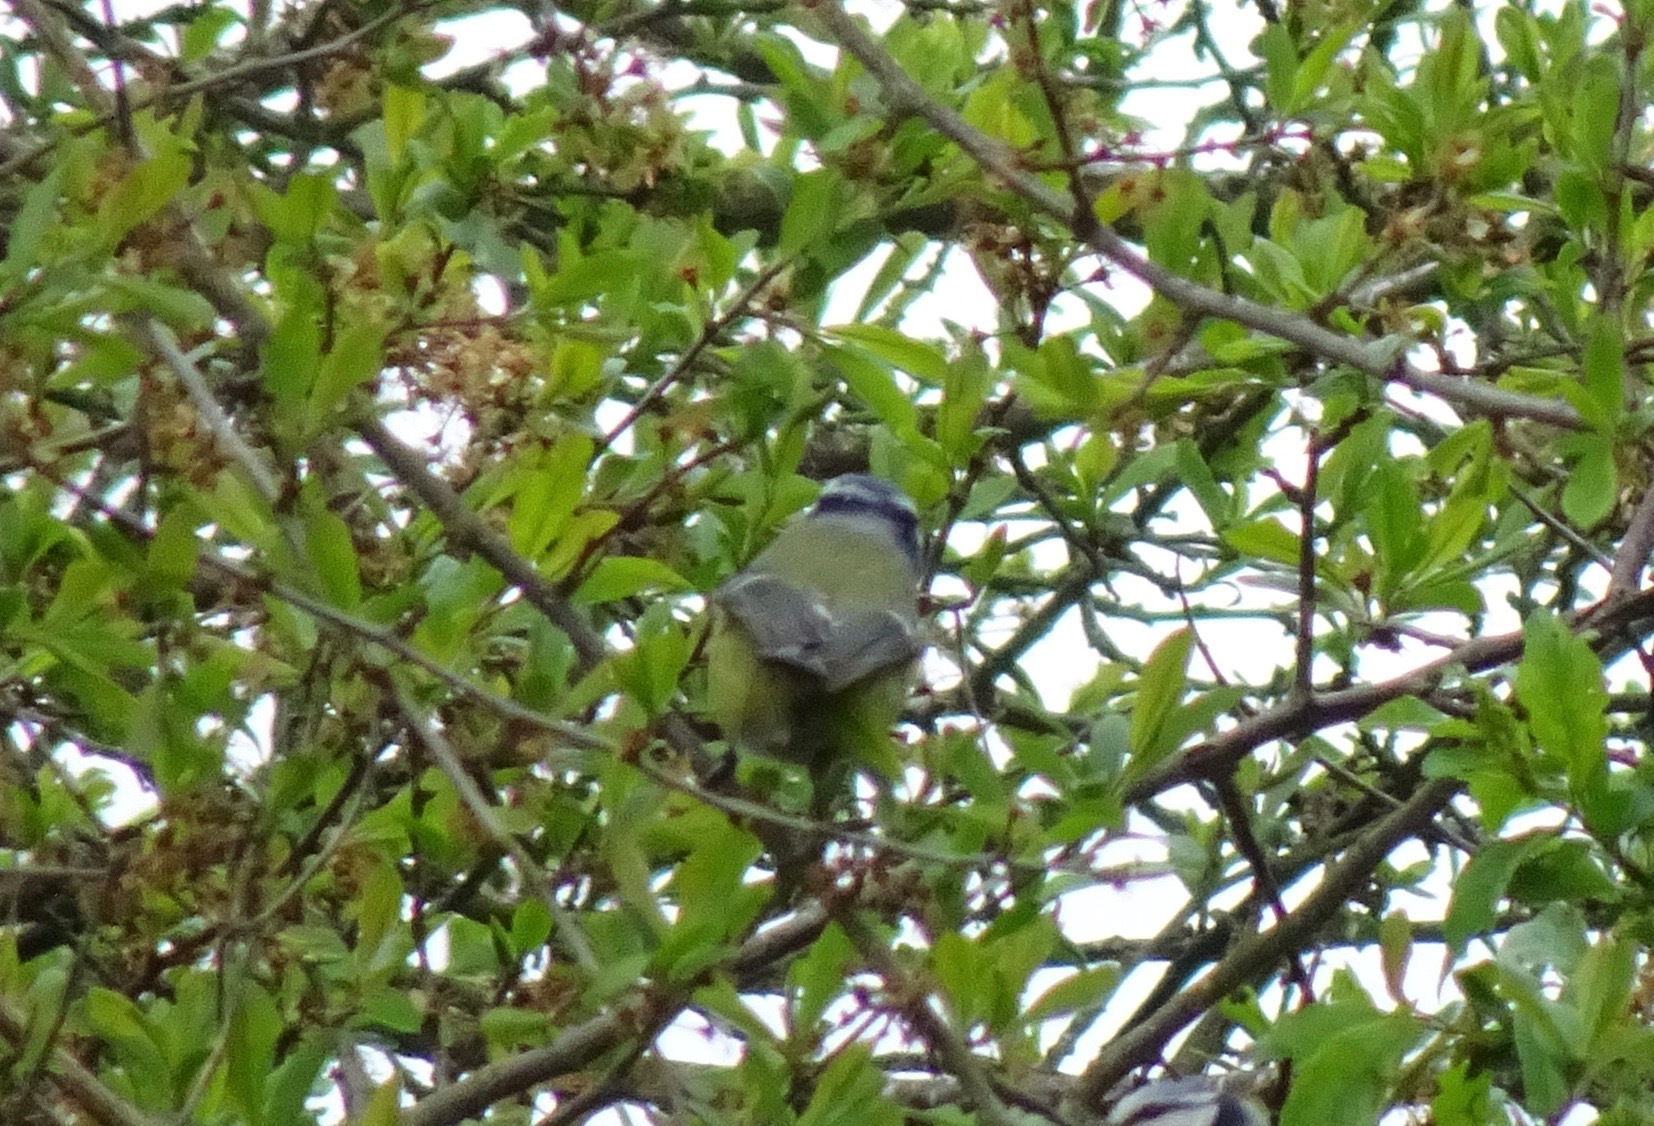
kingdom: Animalia
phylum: Chordata
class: Aves
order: Passeriformes
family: Paridae
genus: Cyanistes
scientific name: Cyanistes caeruleus
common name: Eurasian blue tit
